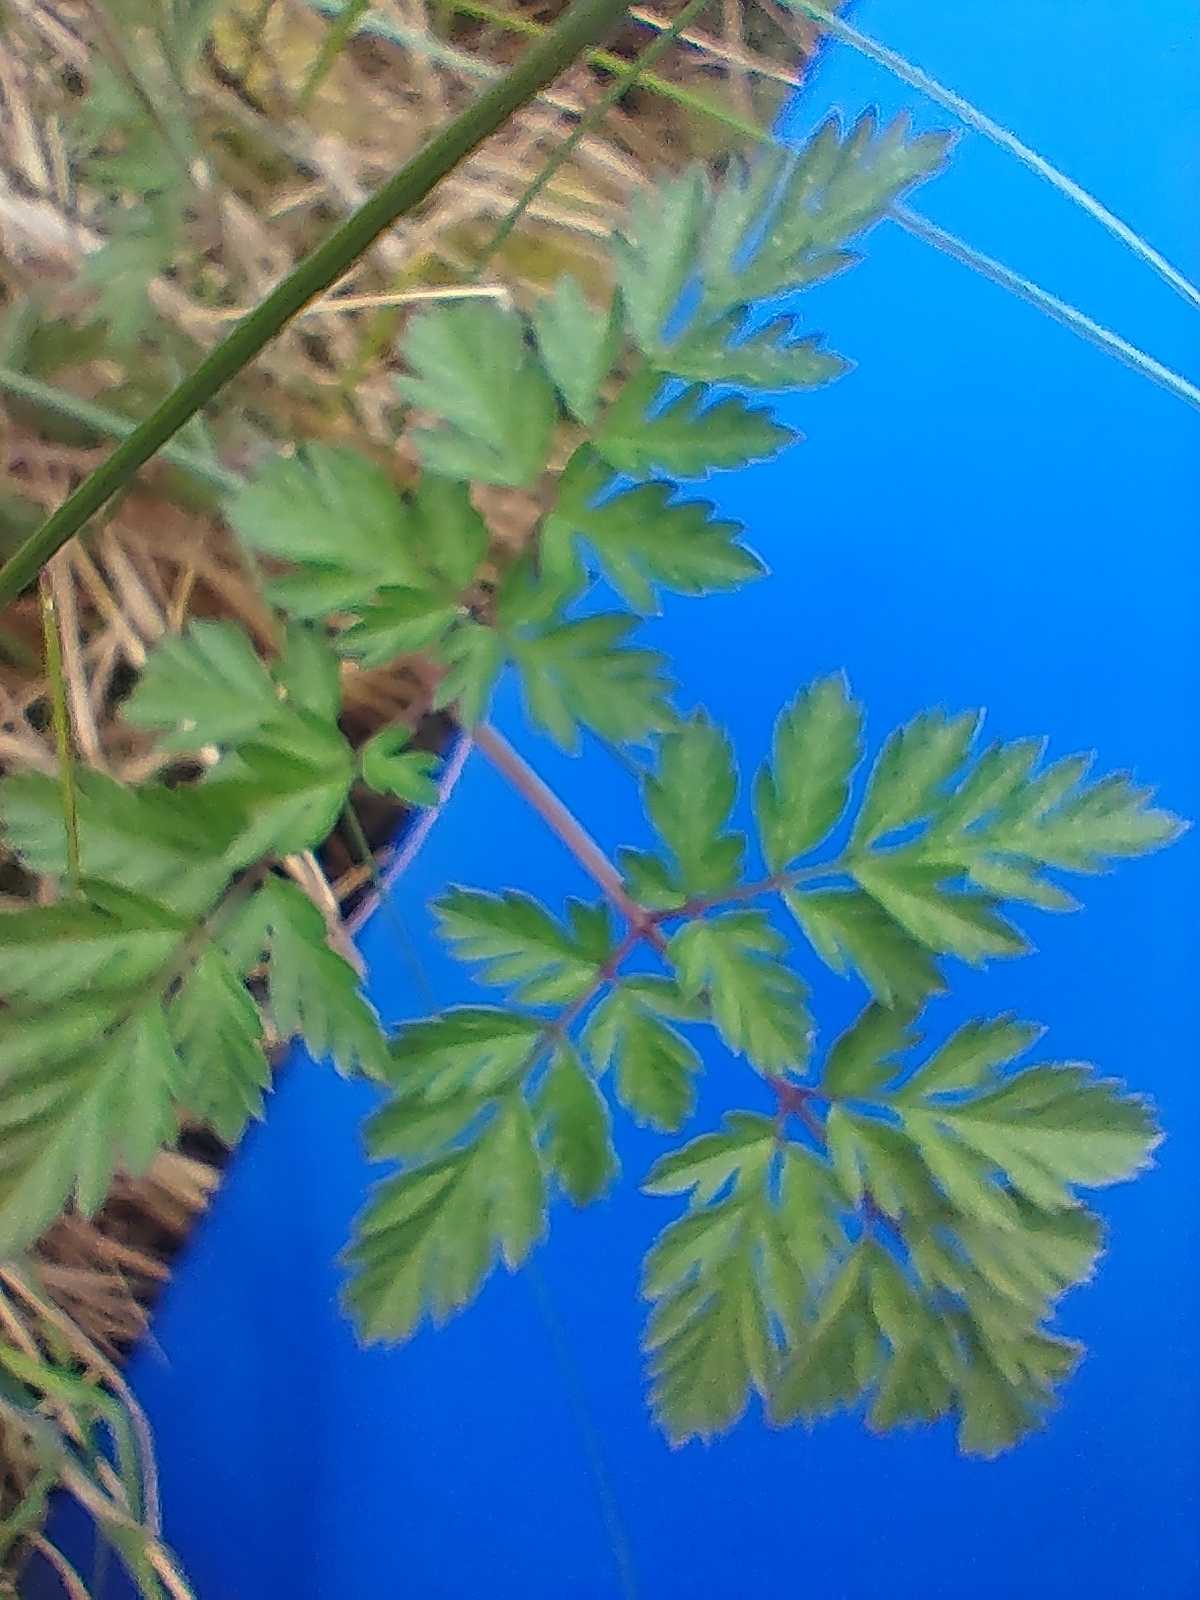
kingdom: Plantae
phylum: Tracheophyta
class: Magnoliopsida
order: Apiales
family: Apiaceae
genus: Anthriscus
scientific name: Anthriscus sylvestris
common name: Cow parsley
